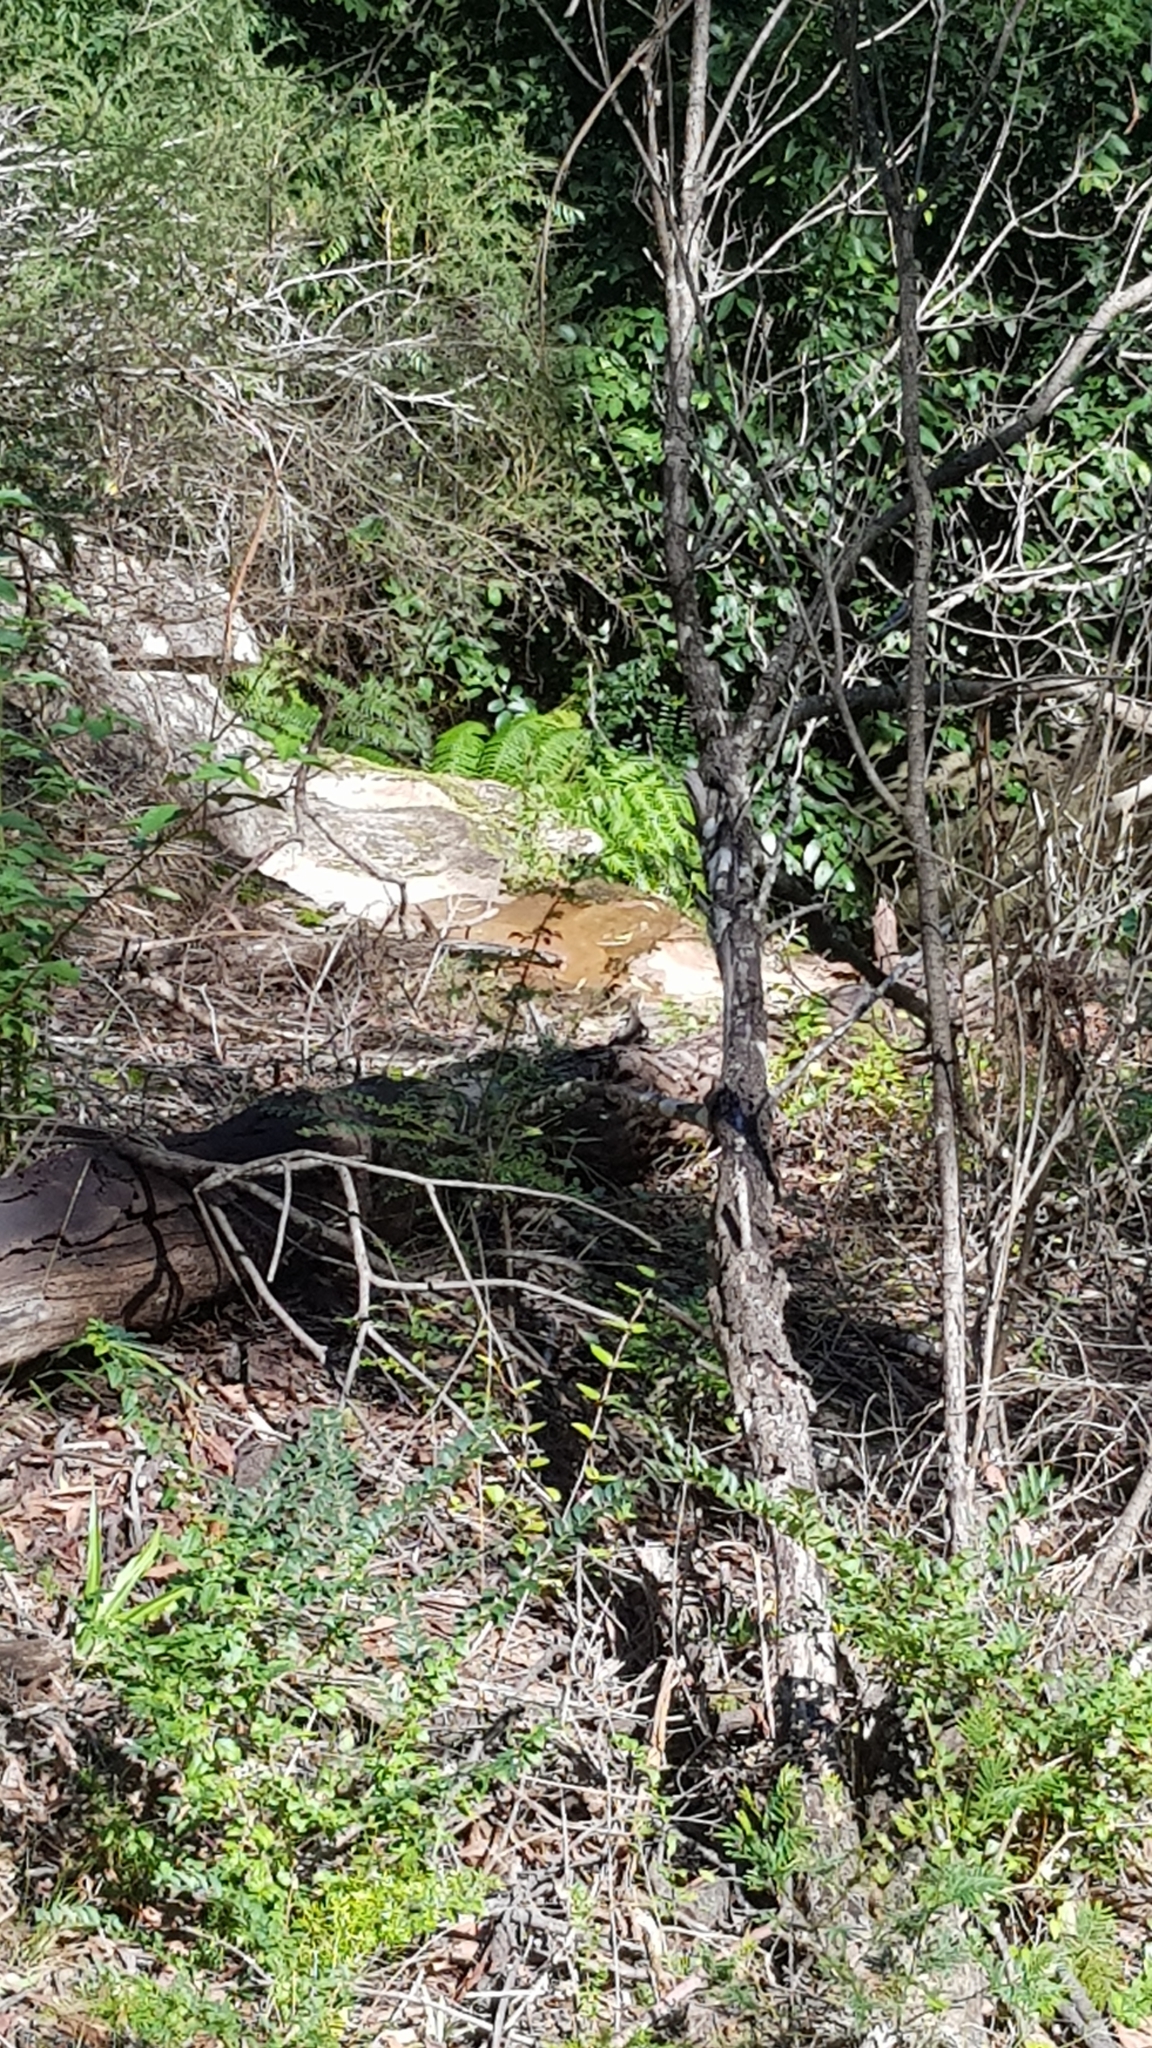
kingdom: Animalia
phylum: Chordata
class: Squamata
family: Agamidae
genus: Intellagama
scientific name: Intellagama lesueurii
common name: Eastern water dragon
